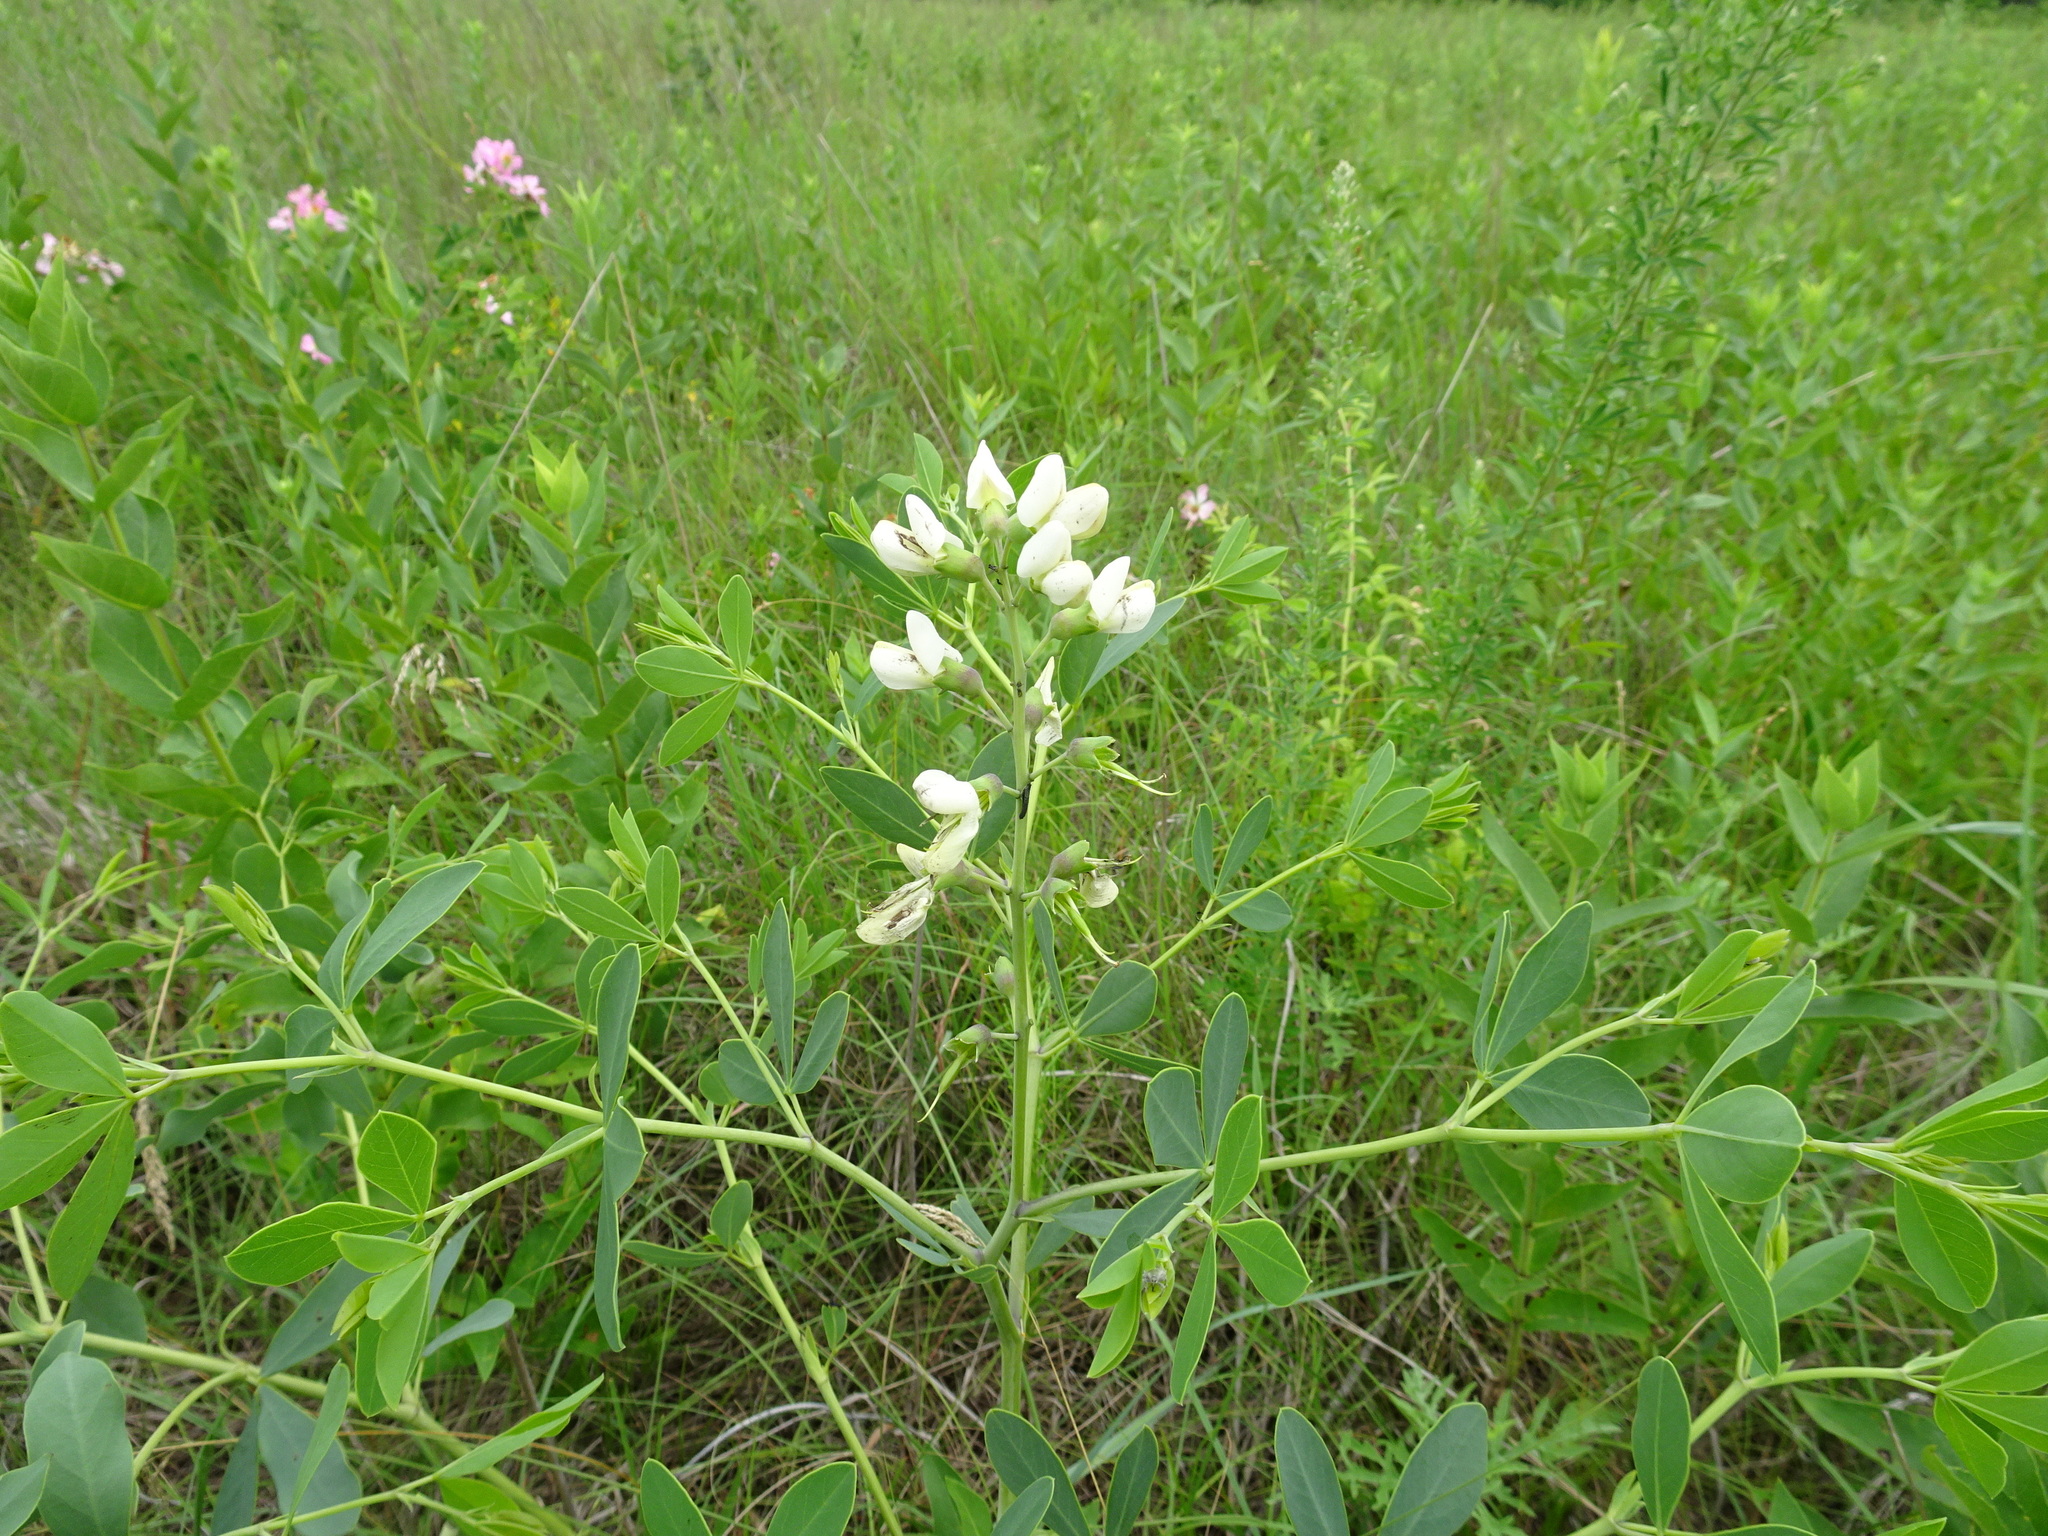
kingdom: Plantae
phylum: Tracheophyta
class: Magnoliopsida
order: Fabales
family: Fabaceae
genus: Baptisia
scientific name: Baptisia alba
